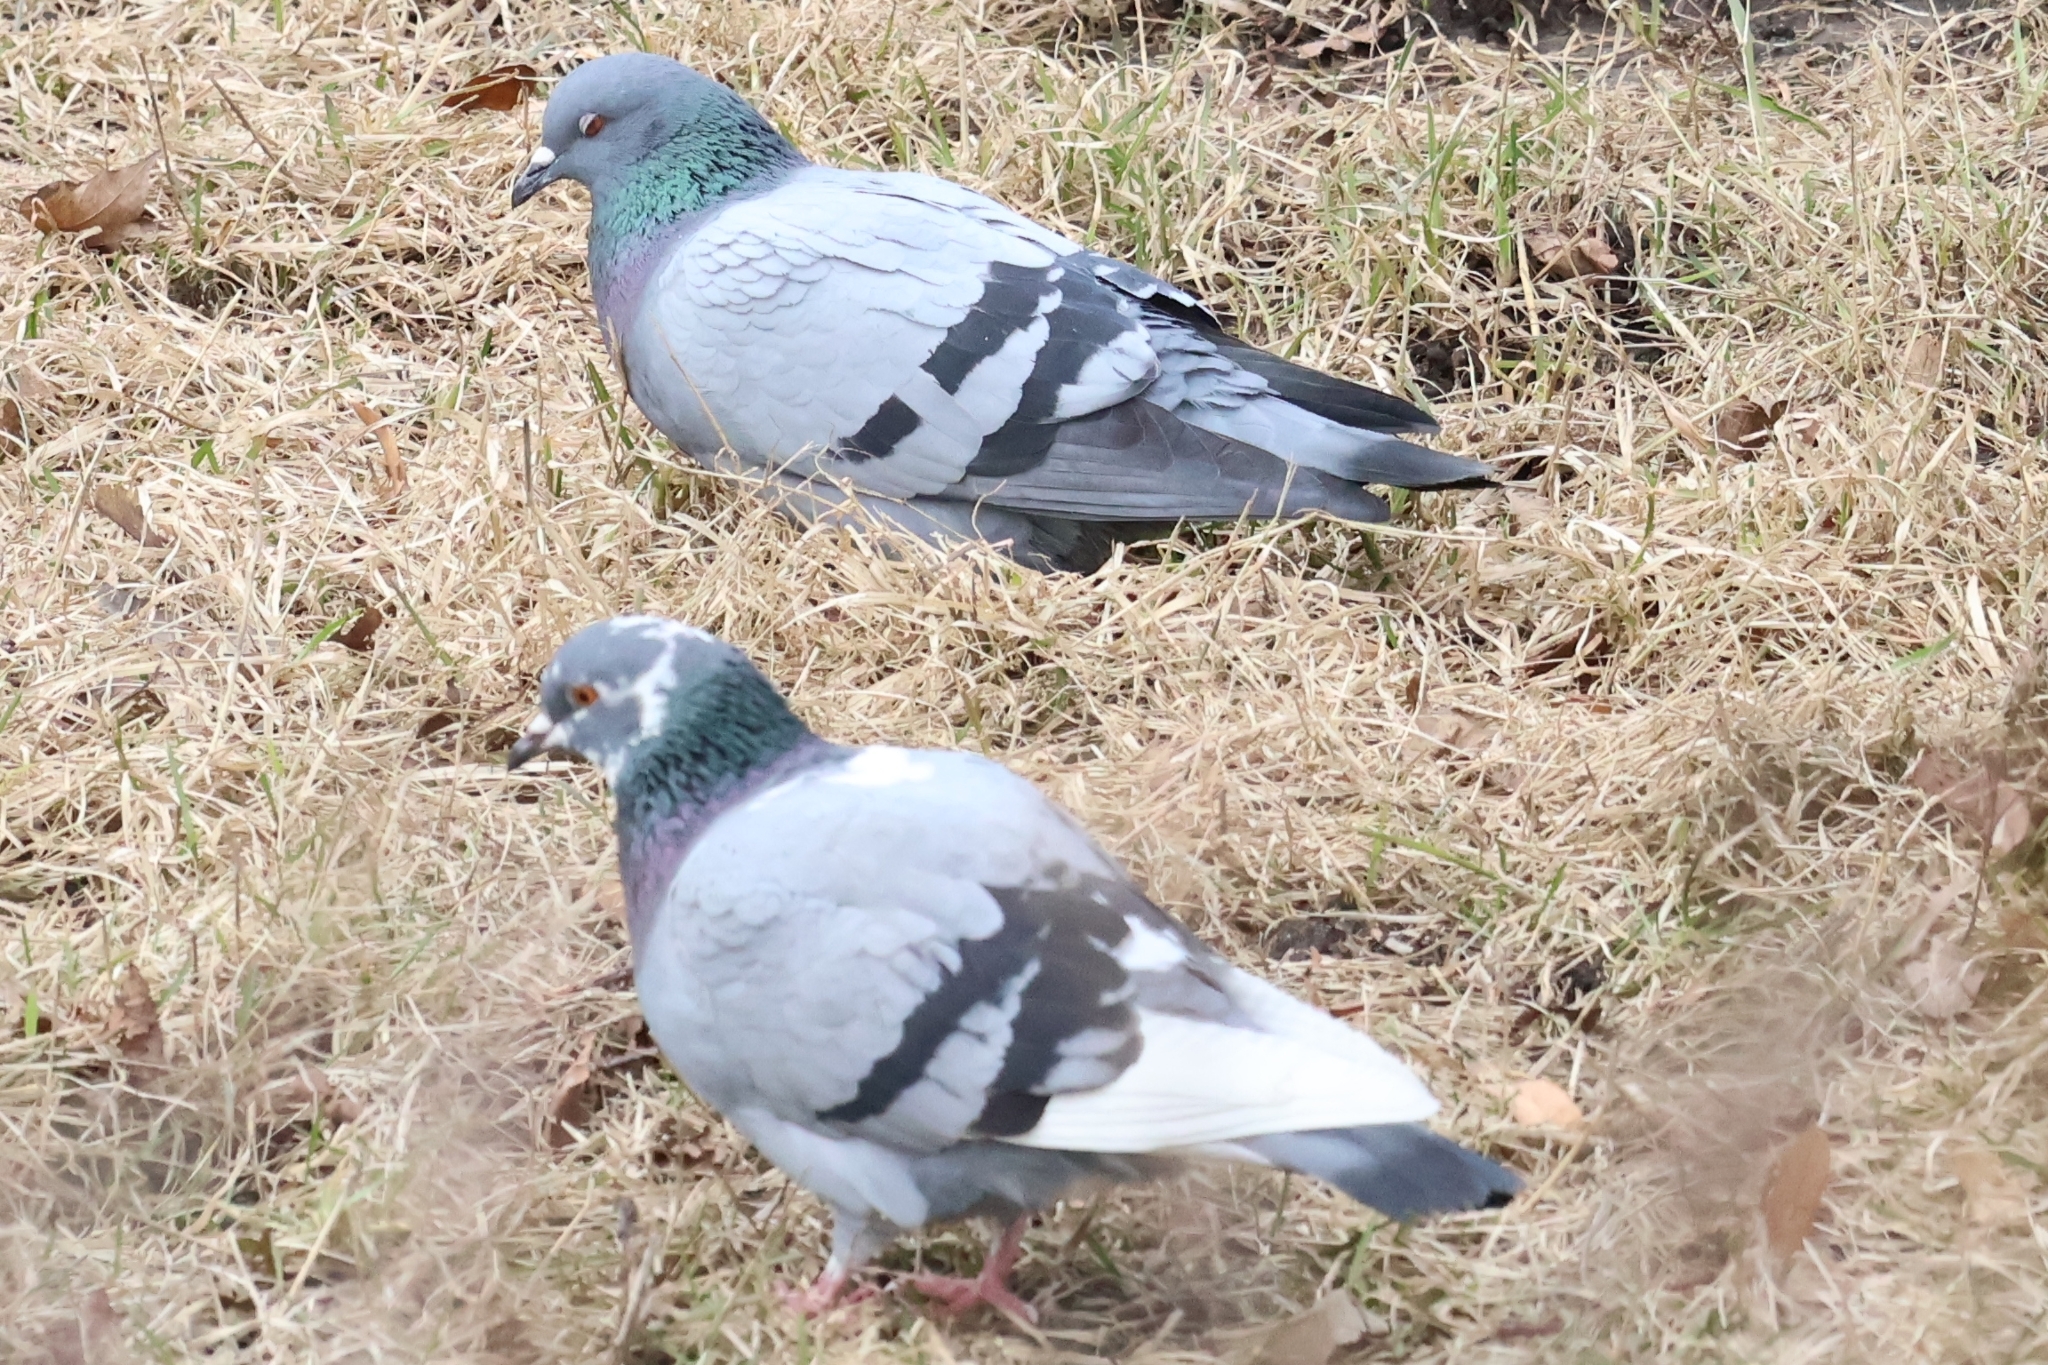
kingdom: Animalia
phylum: Chordata
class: Aves
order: Columbiformes
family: Columbidae
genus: Columba
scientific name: Columba livia
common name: Rock pigeon
